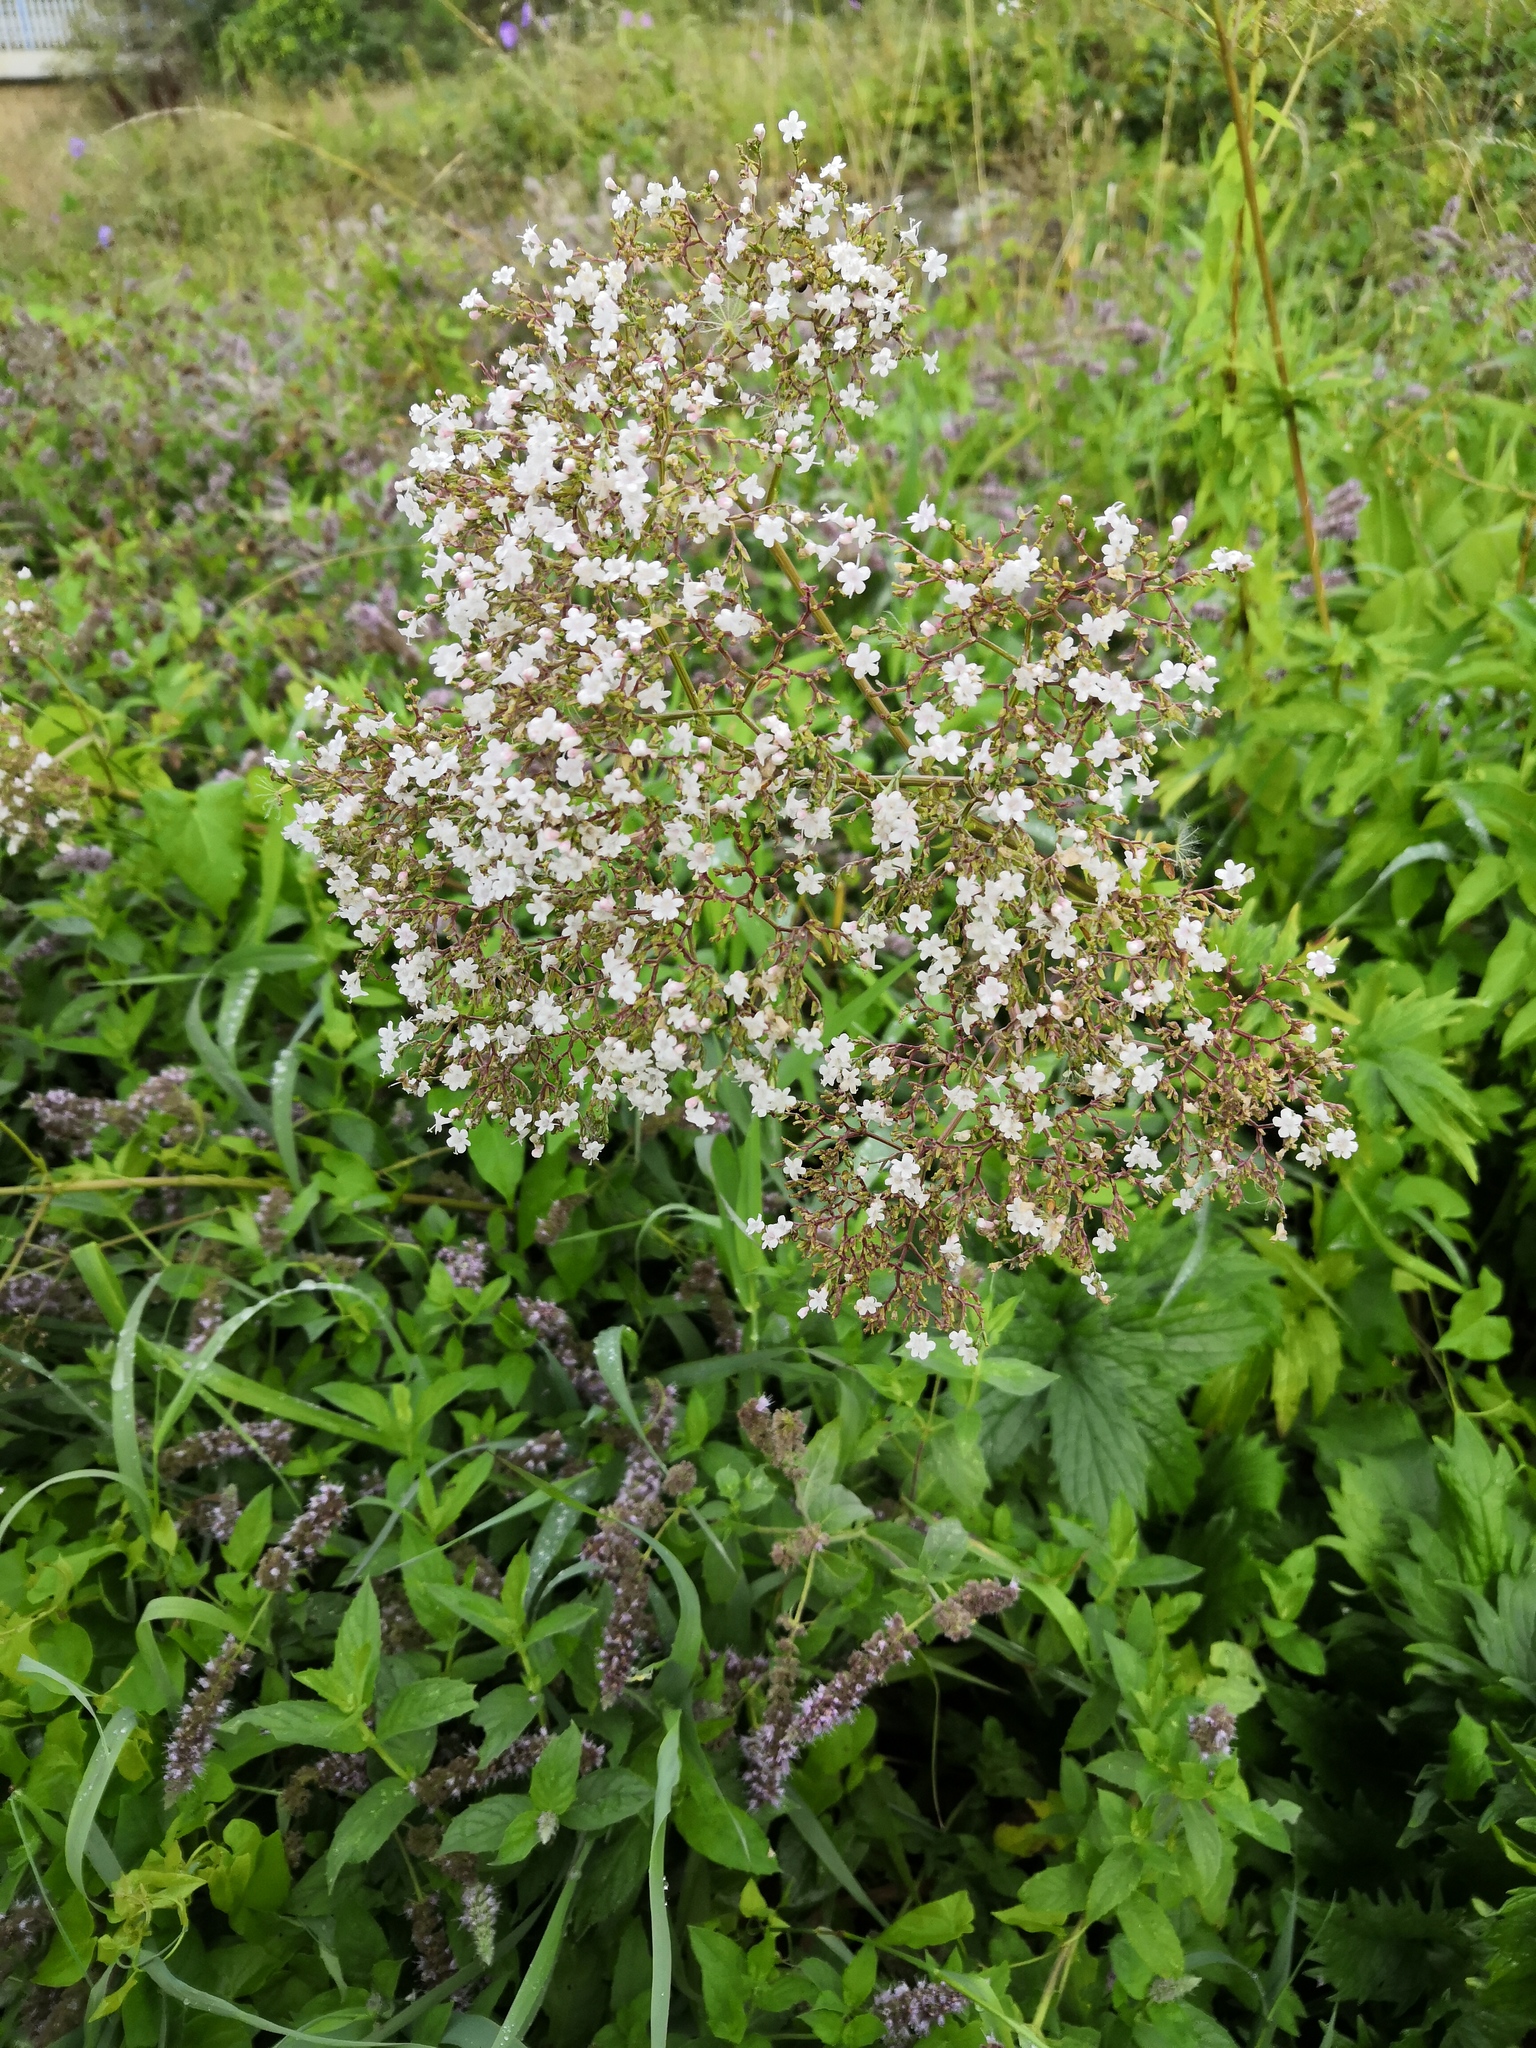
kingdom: Plantae
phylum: Tracheophyta
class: Magnoliopsida
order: Dipsacales
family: Caprifoliaceae
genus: Valeriana
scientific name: Valeriana officinalis
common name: Common valerian
